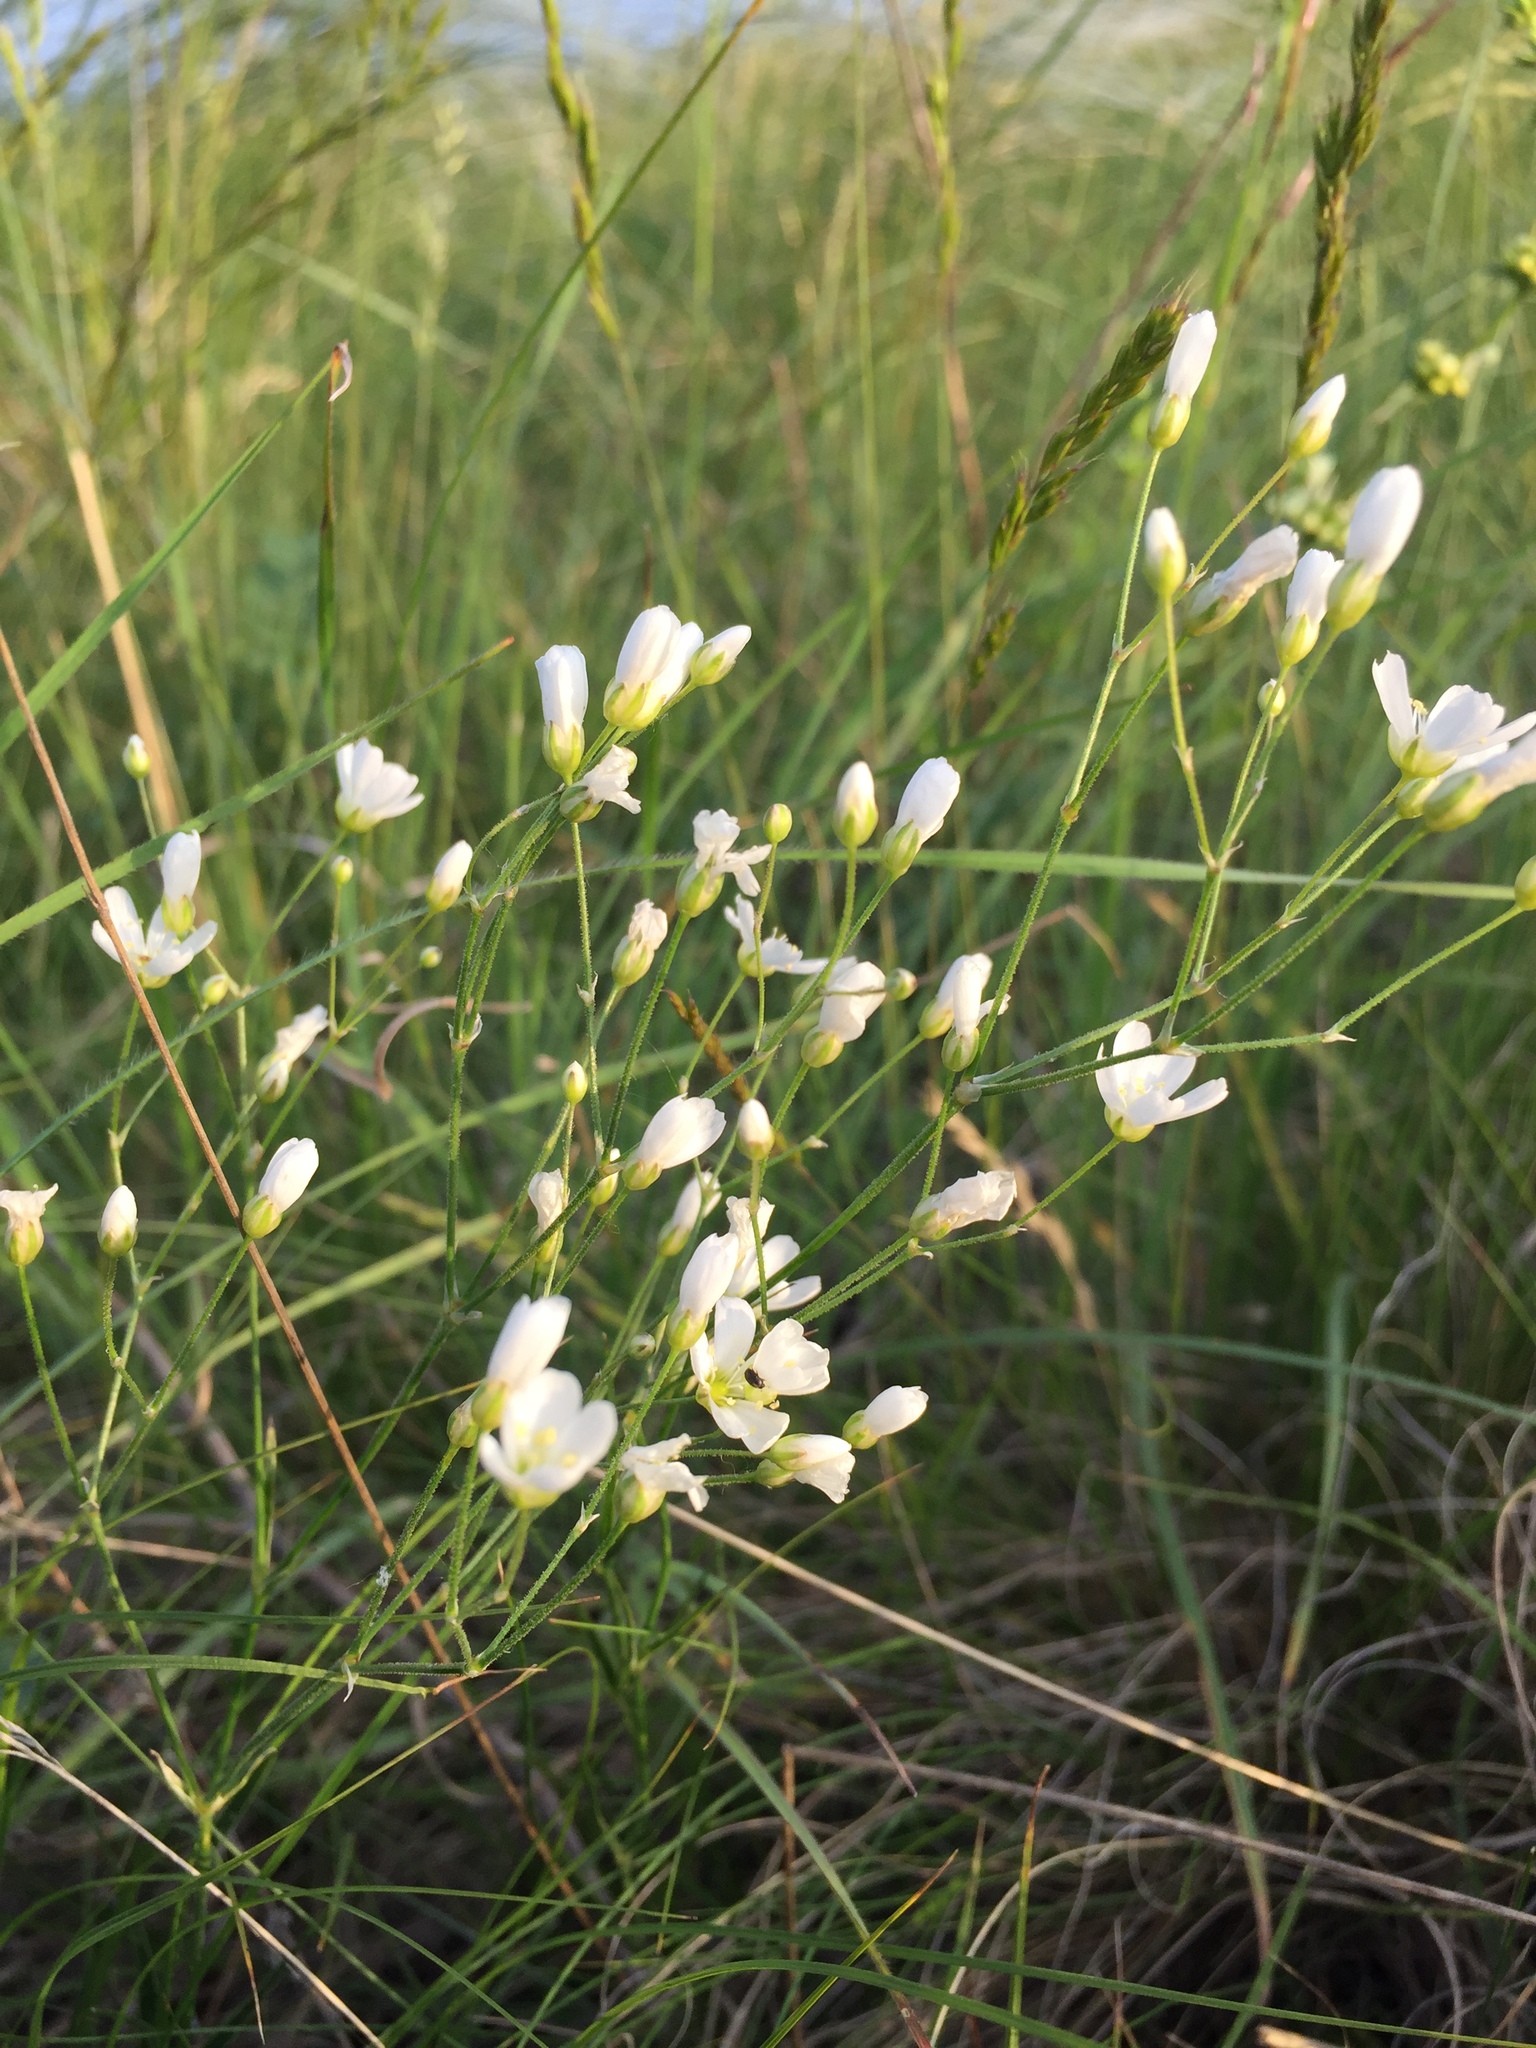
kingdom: Plantae
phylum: Tracheophyta
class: Magnoliopsida
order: Caryophyllales
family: Caryophyllaceae
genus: Eremogone
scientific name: Eremogone biebersteinii
